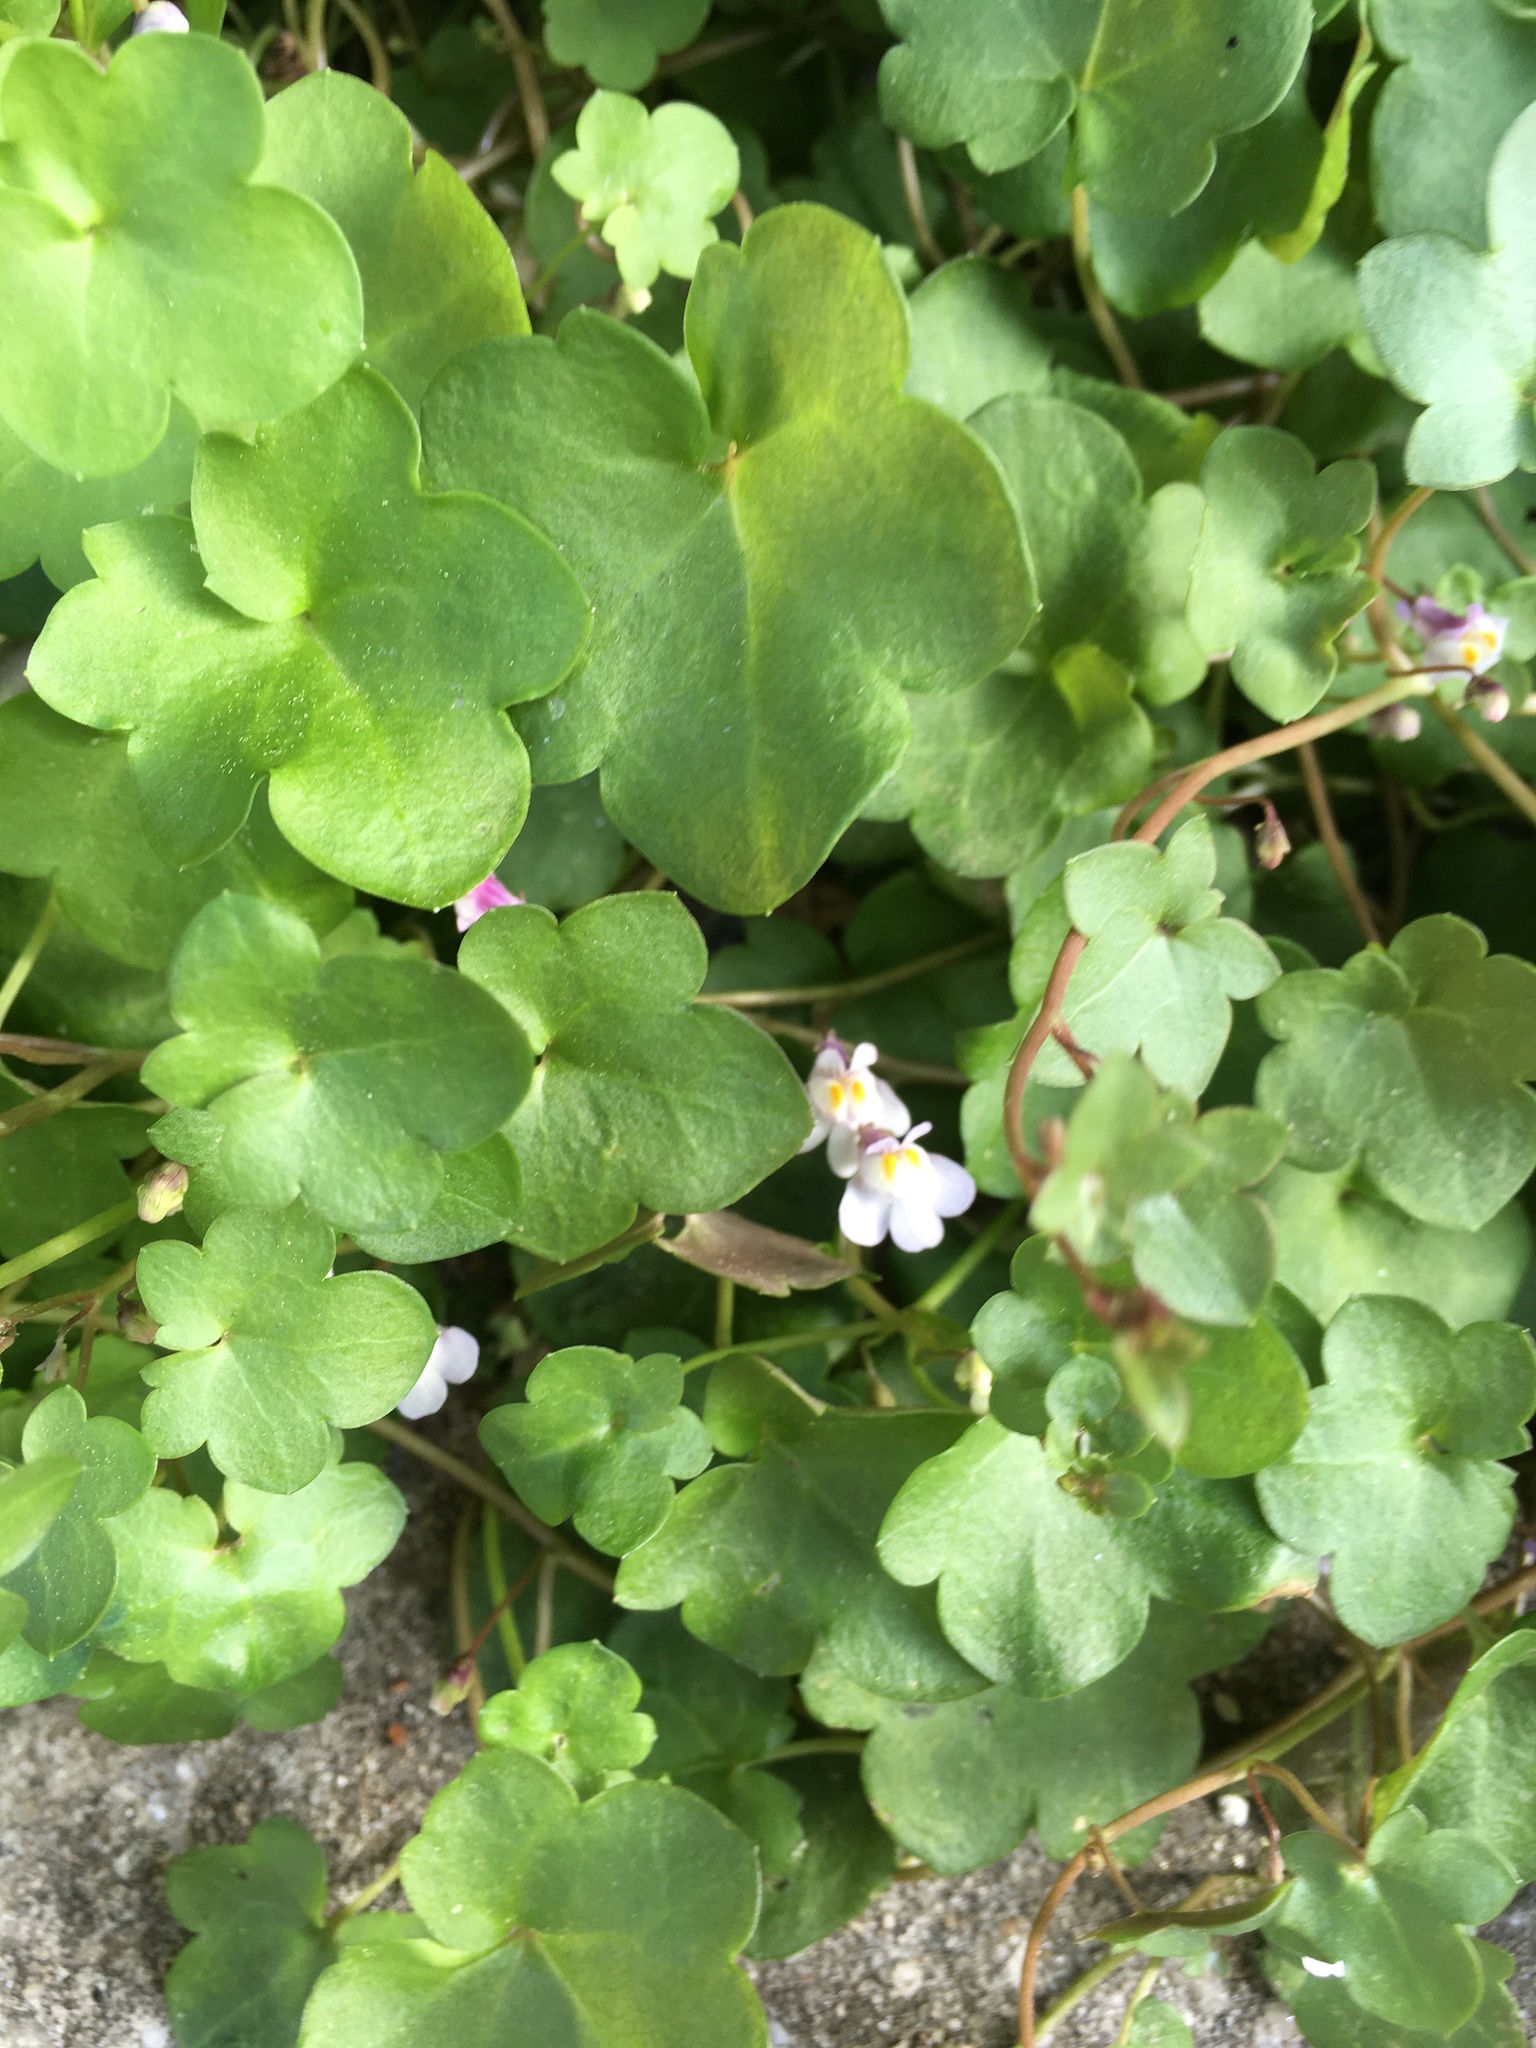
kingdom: Plantae
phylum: Tracheophyta
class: Magnoliopsida
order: Lamiales
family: Plantaginaceae
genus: Cymbalaria
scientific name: Cymbalaria muralis
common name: Ivy-leaved toadflax
